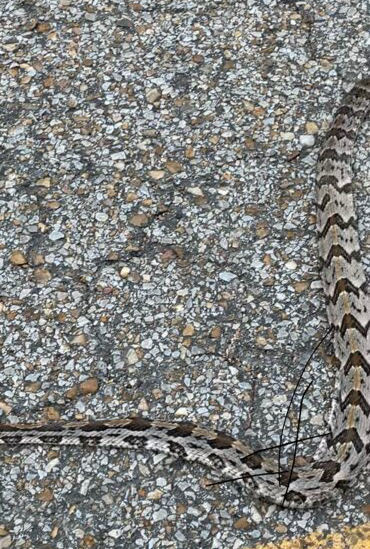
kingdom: Animalia
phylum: Chordata
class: Squamata
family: Viperidae
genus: Crotalus
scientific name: Crotalus horridus
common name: Timber rattlesnake
